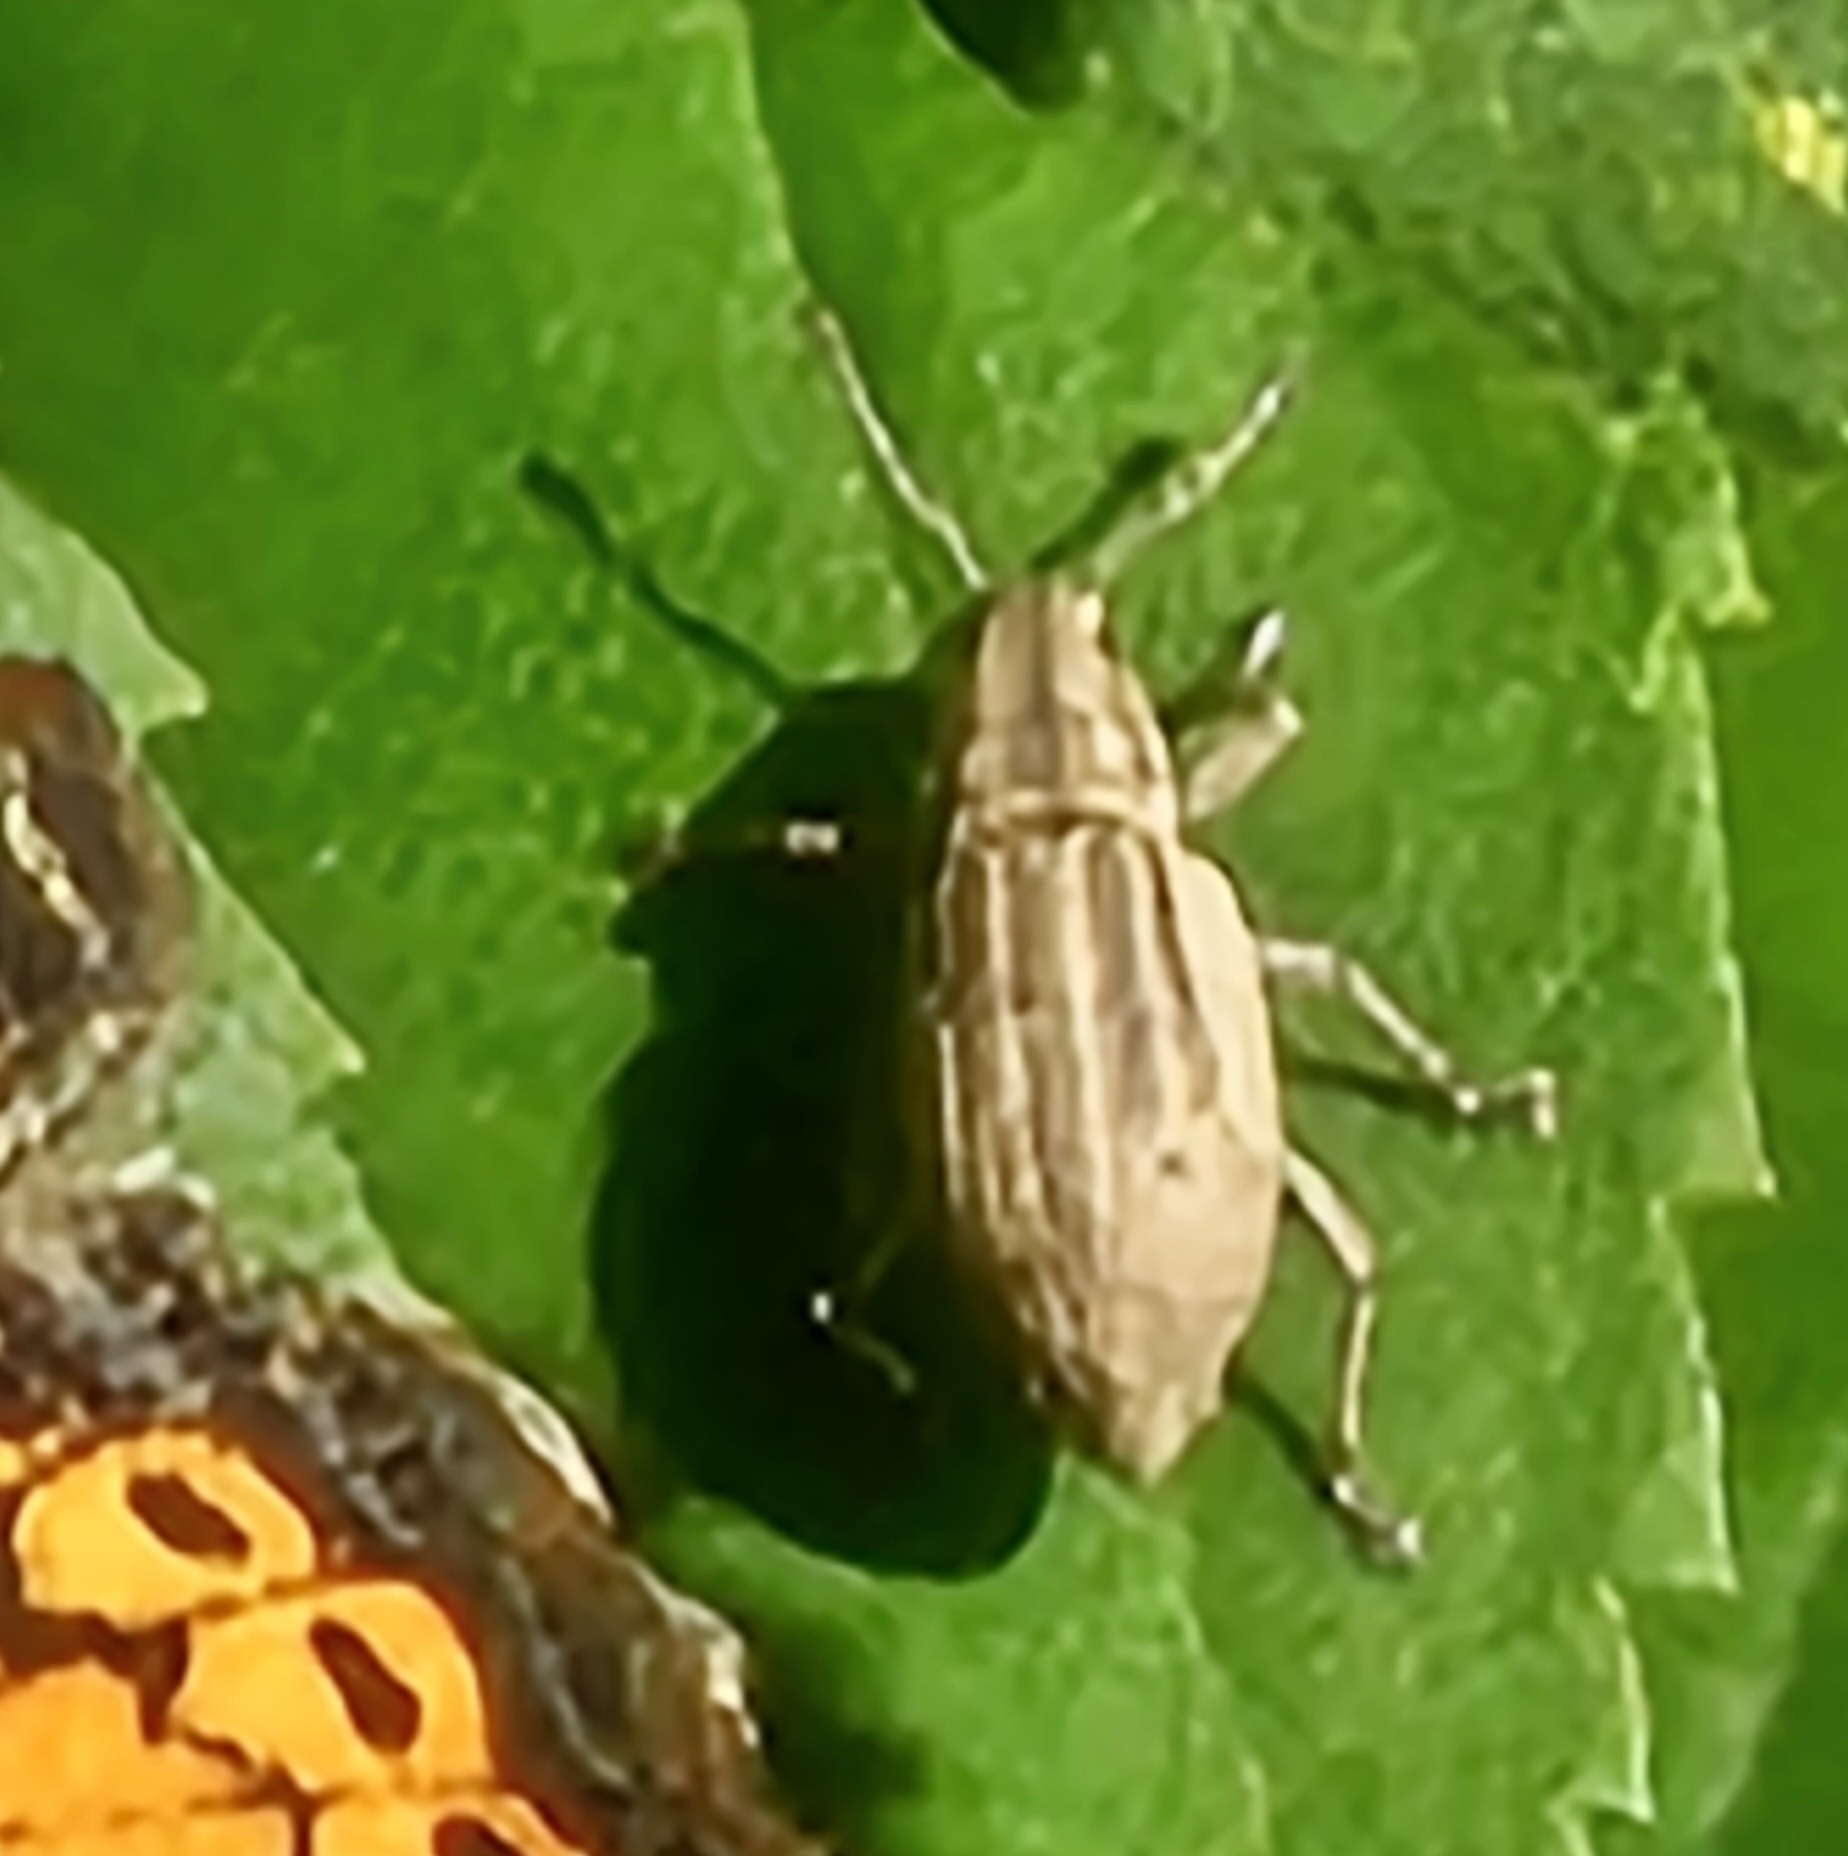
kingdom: Animalia
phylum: Arthropoda
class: Insecta
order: Coleoptera
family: Curculionidae
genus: Aphrastus
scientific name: Aphrastus taeniatus
